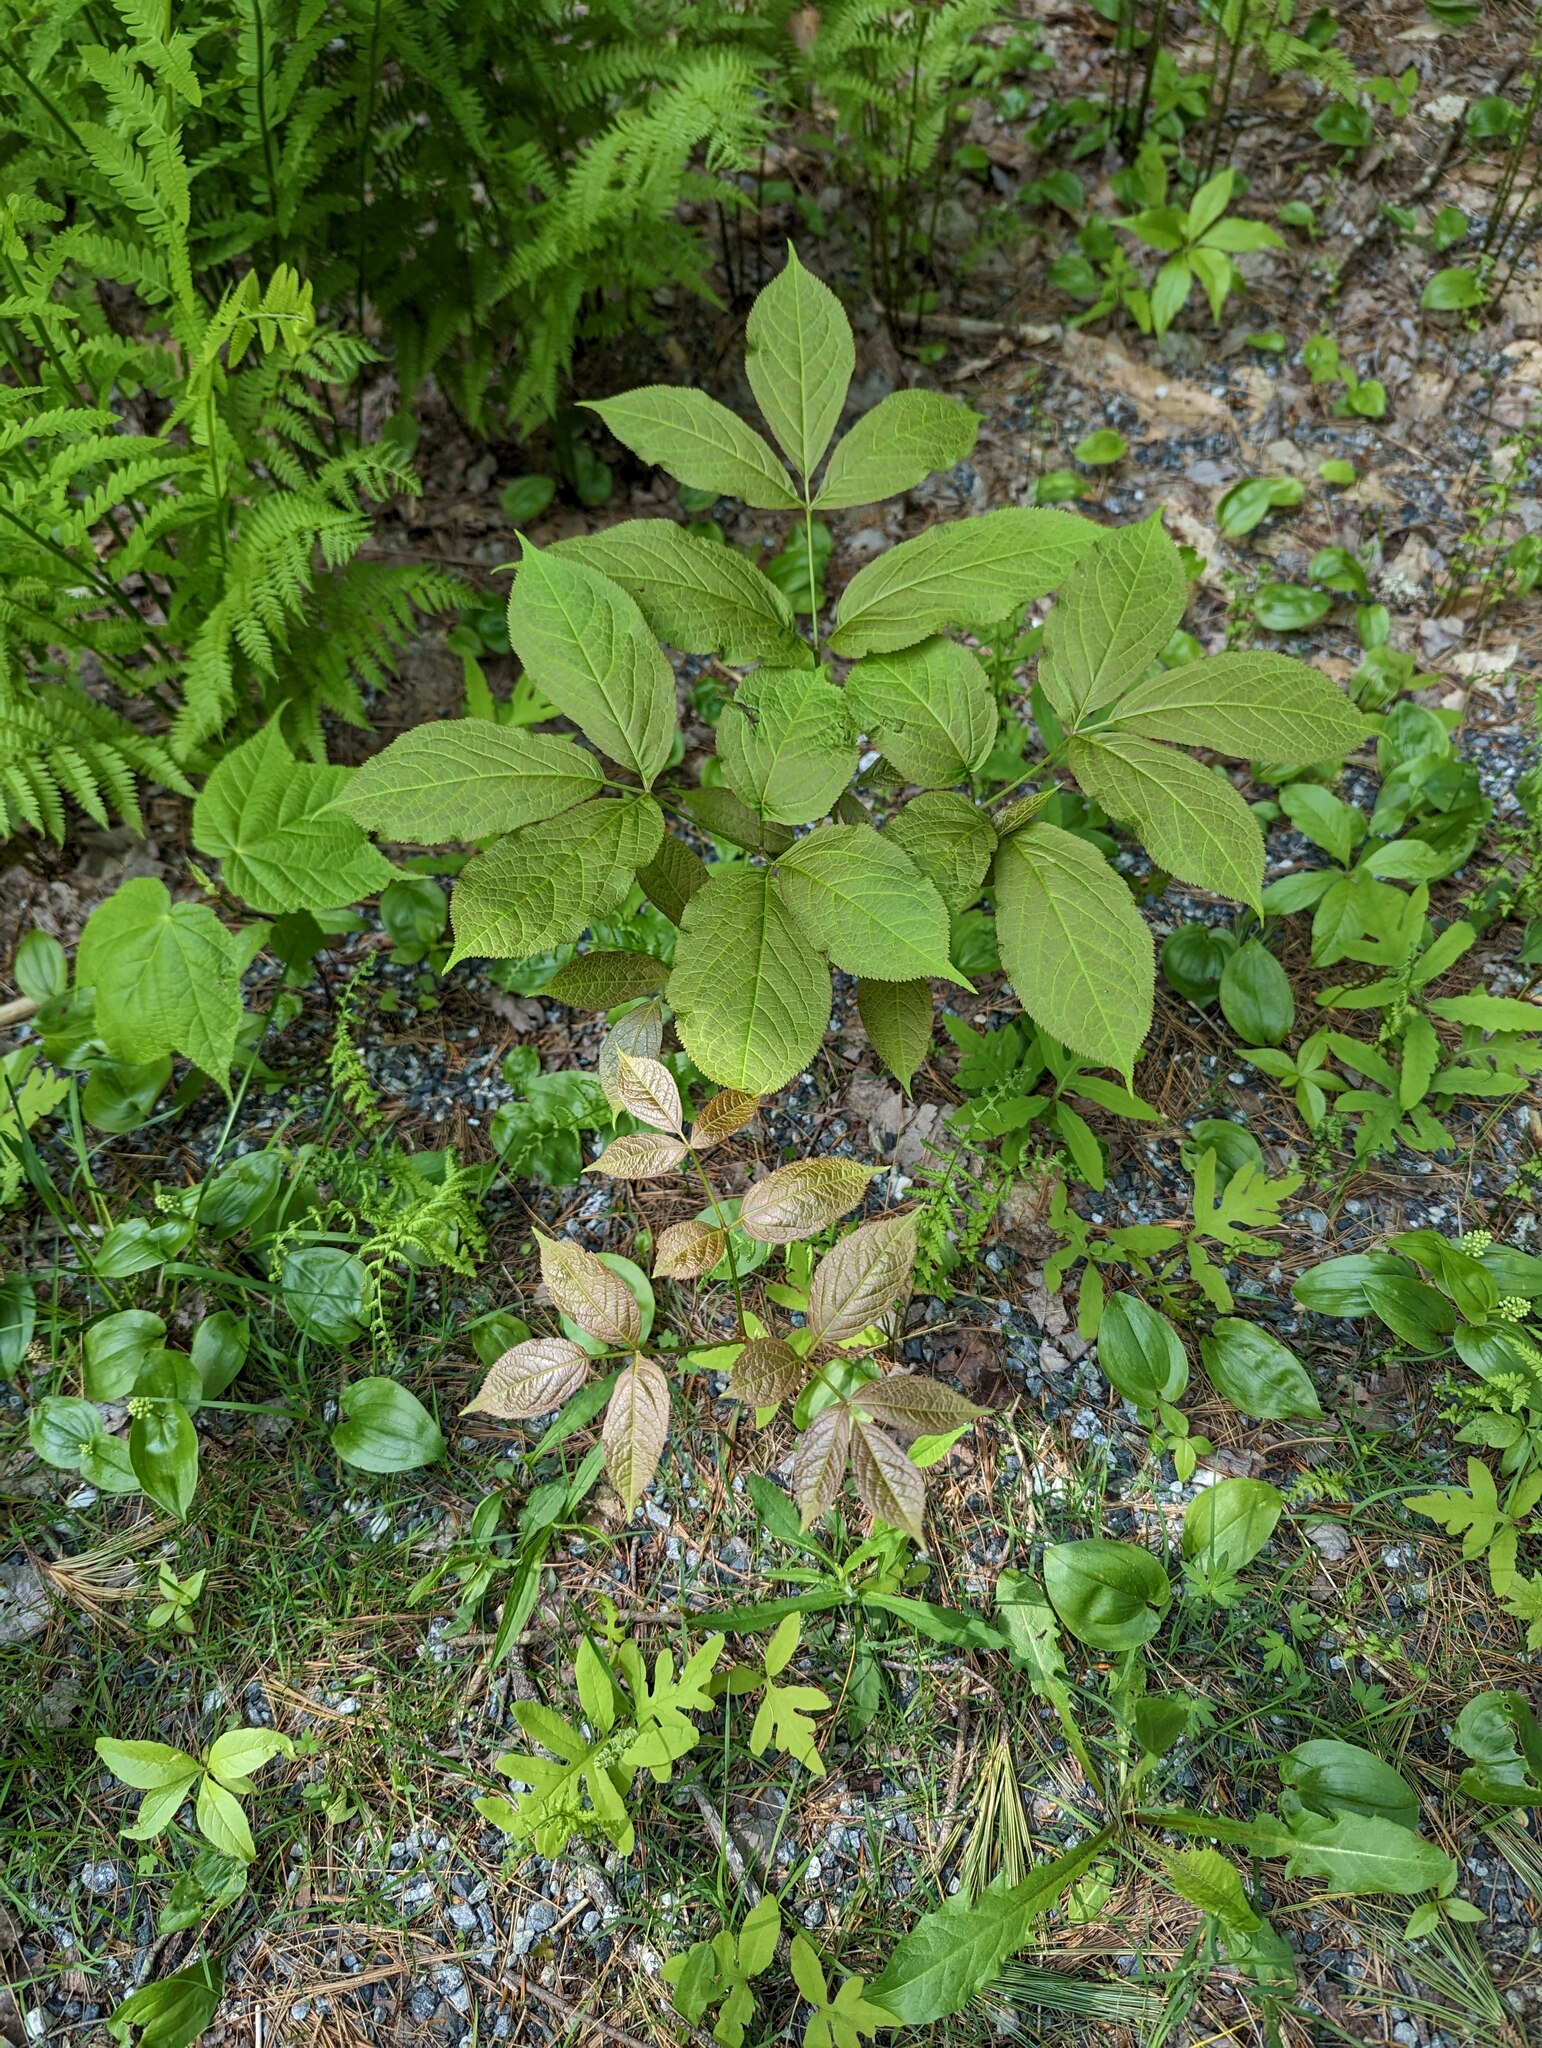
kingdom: Plantae
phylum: Tracheophyta
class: Magnoliopsida
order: Apiales
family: Araliaceae
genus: Aralia
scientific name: Aralia nudicaulis
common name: Wild sarsaparilla
